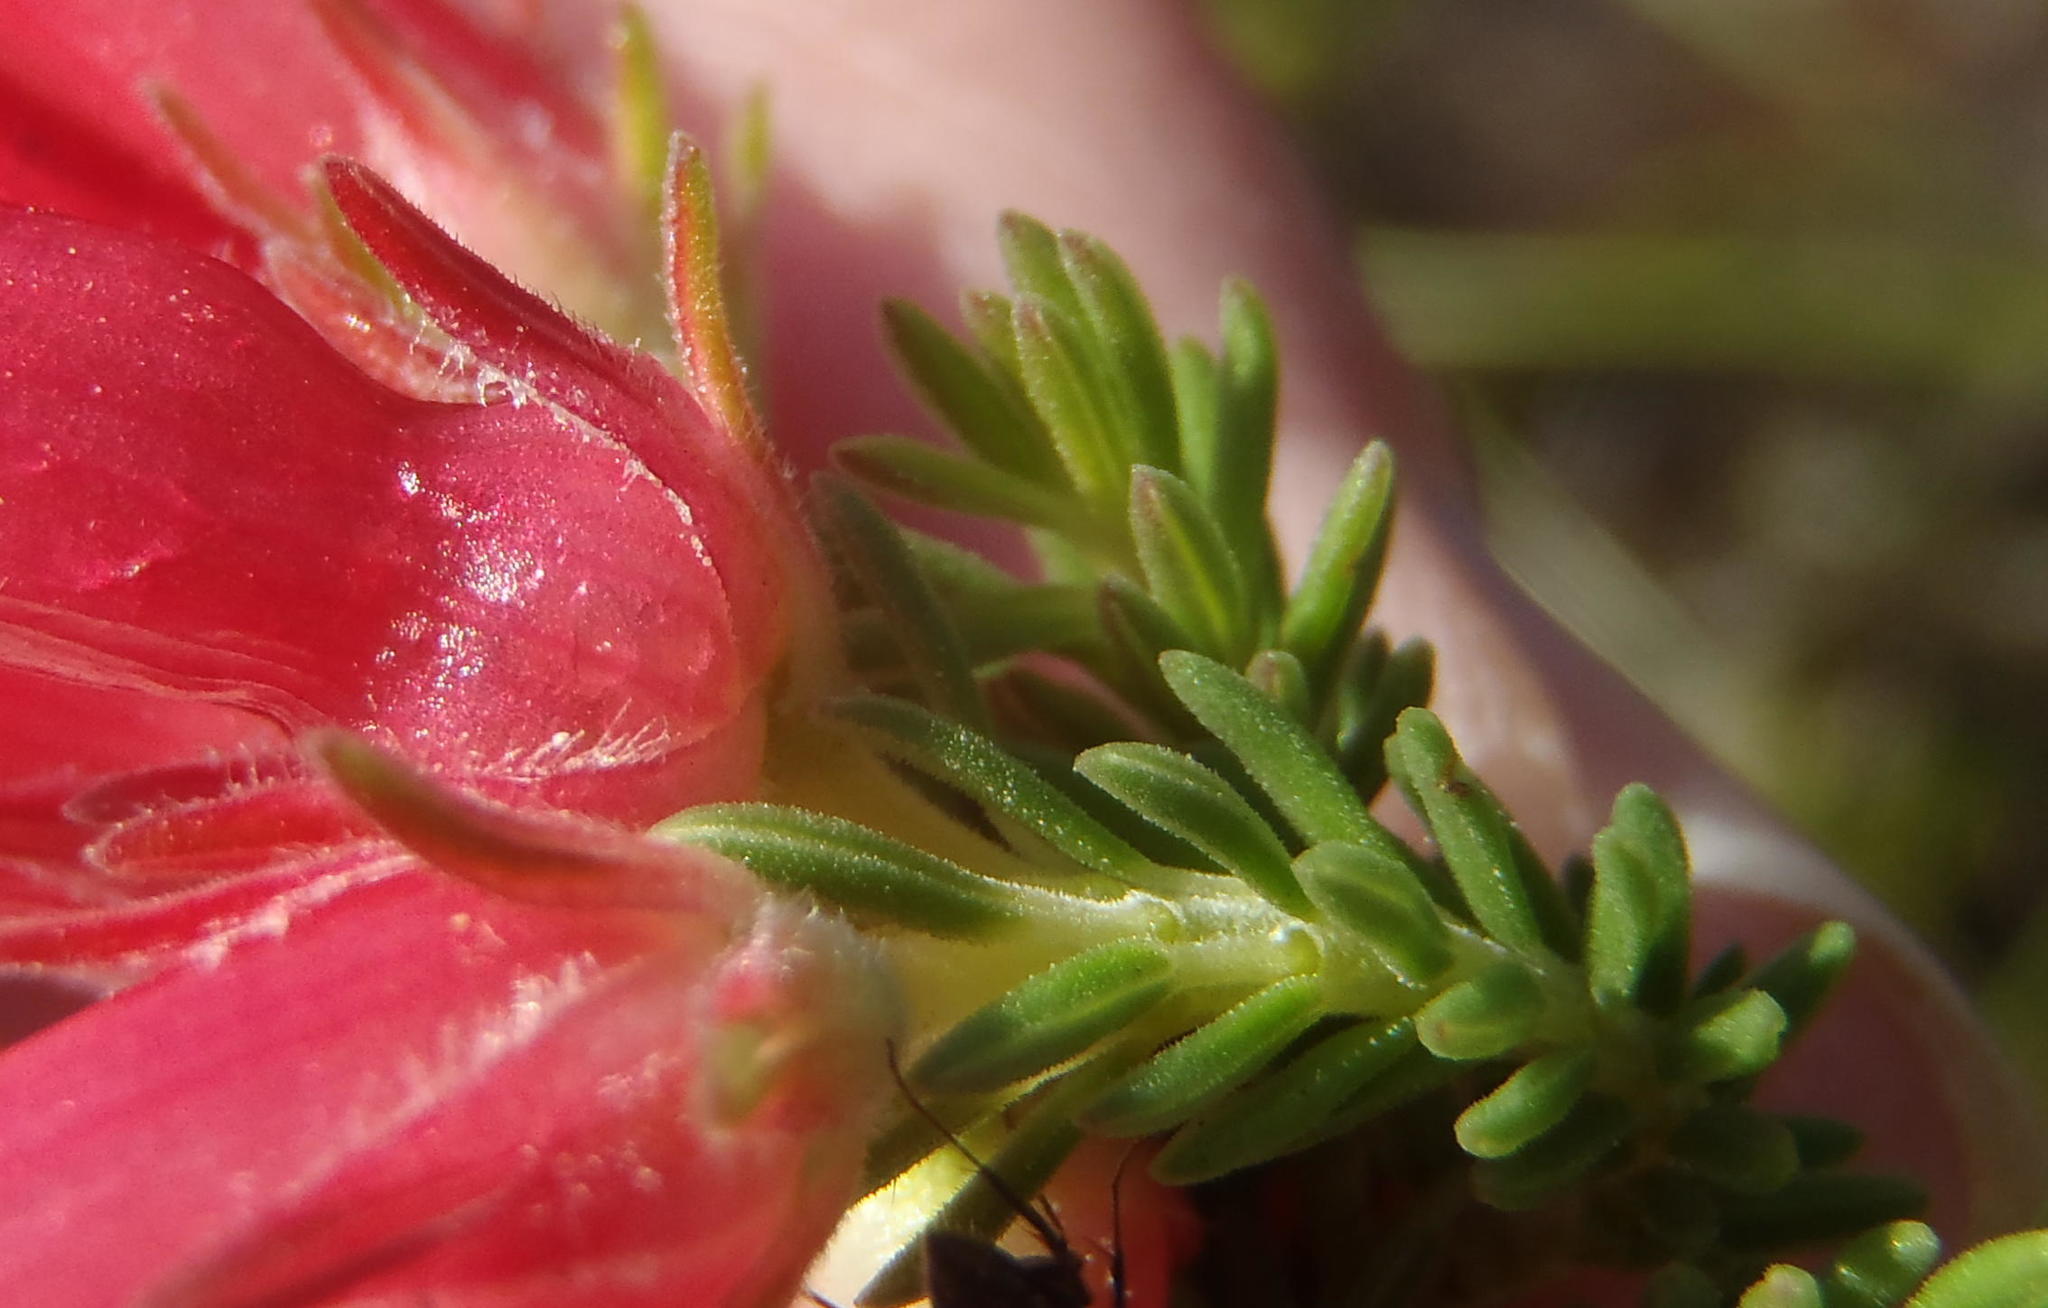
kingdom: Plantae
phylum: Tracheophyta
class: Magnoliopsida
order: Ericales
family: Ericaceae
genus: Erica
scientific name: Erica discolor
